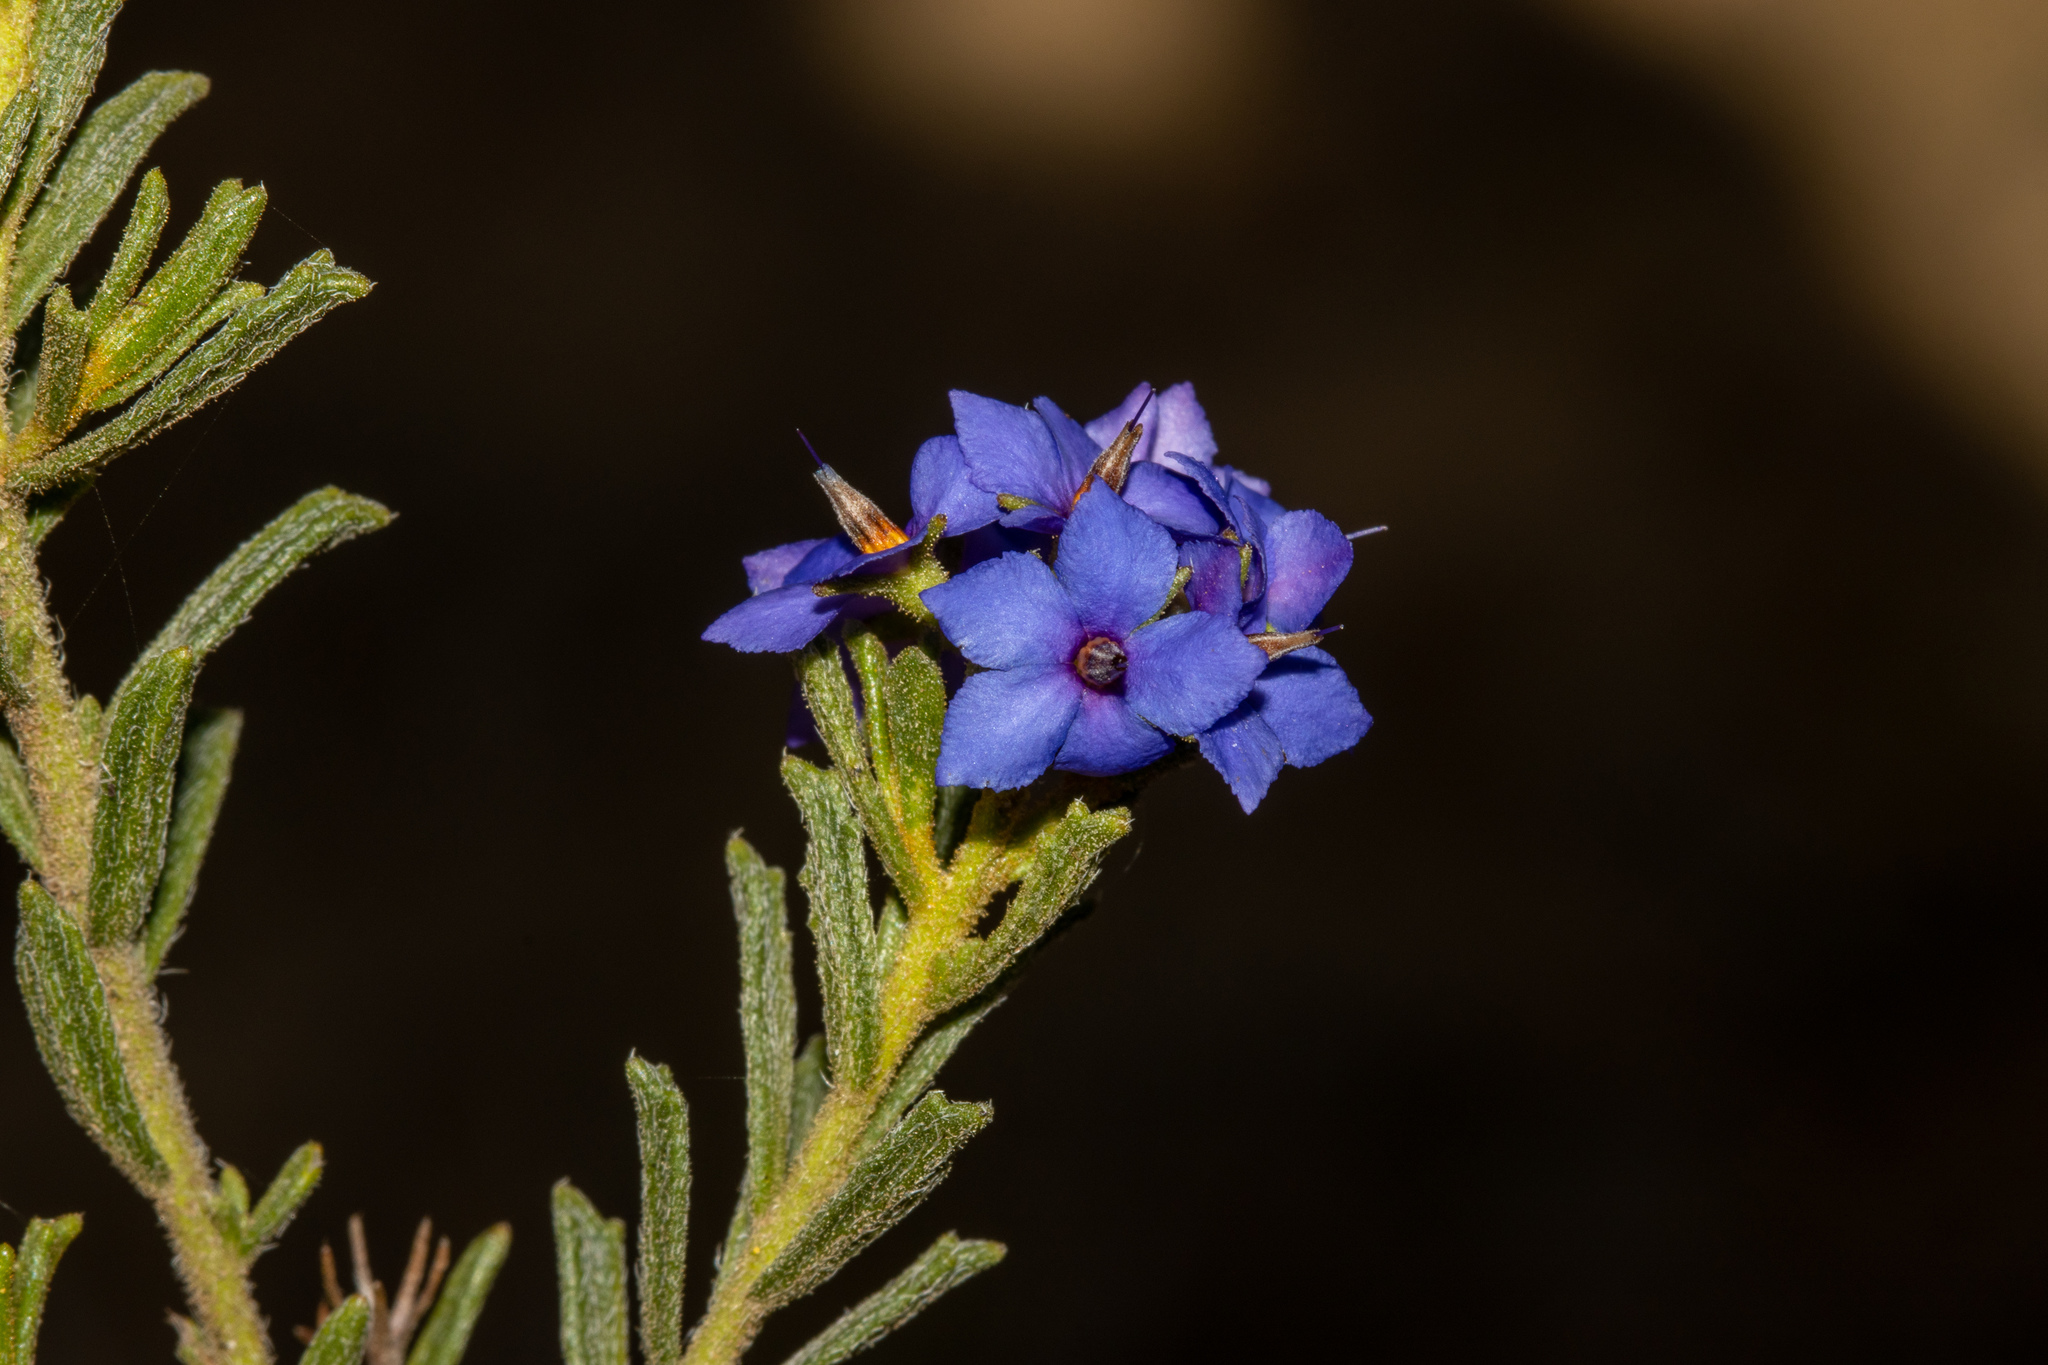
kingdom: Plantae
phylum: Tracheophyta
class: Magnoliopsida
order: Boraginales
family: Ehretiaceae
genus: Halgania
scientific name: Halgania cyanea
